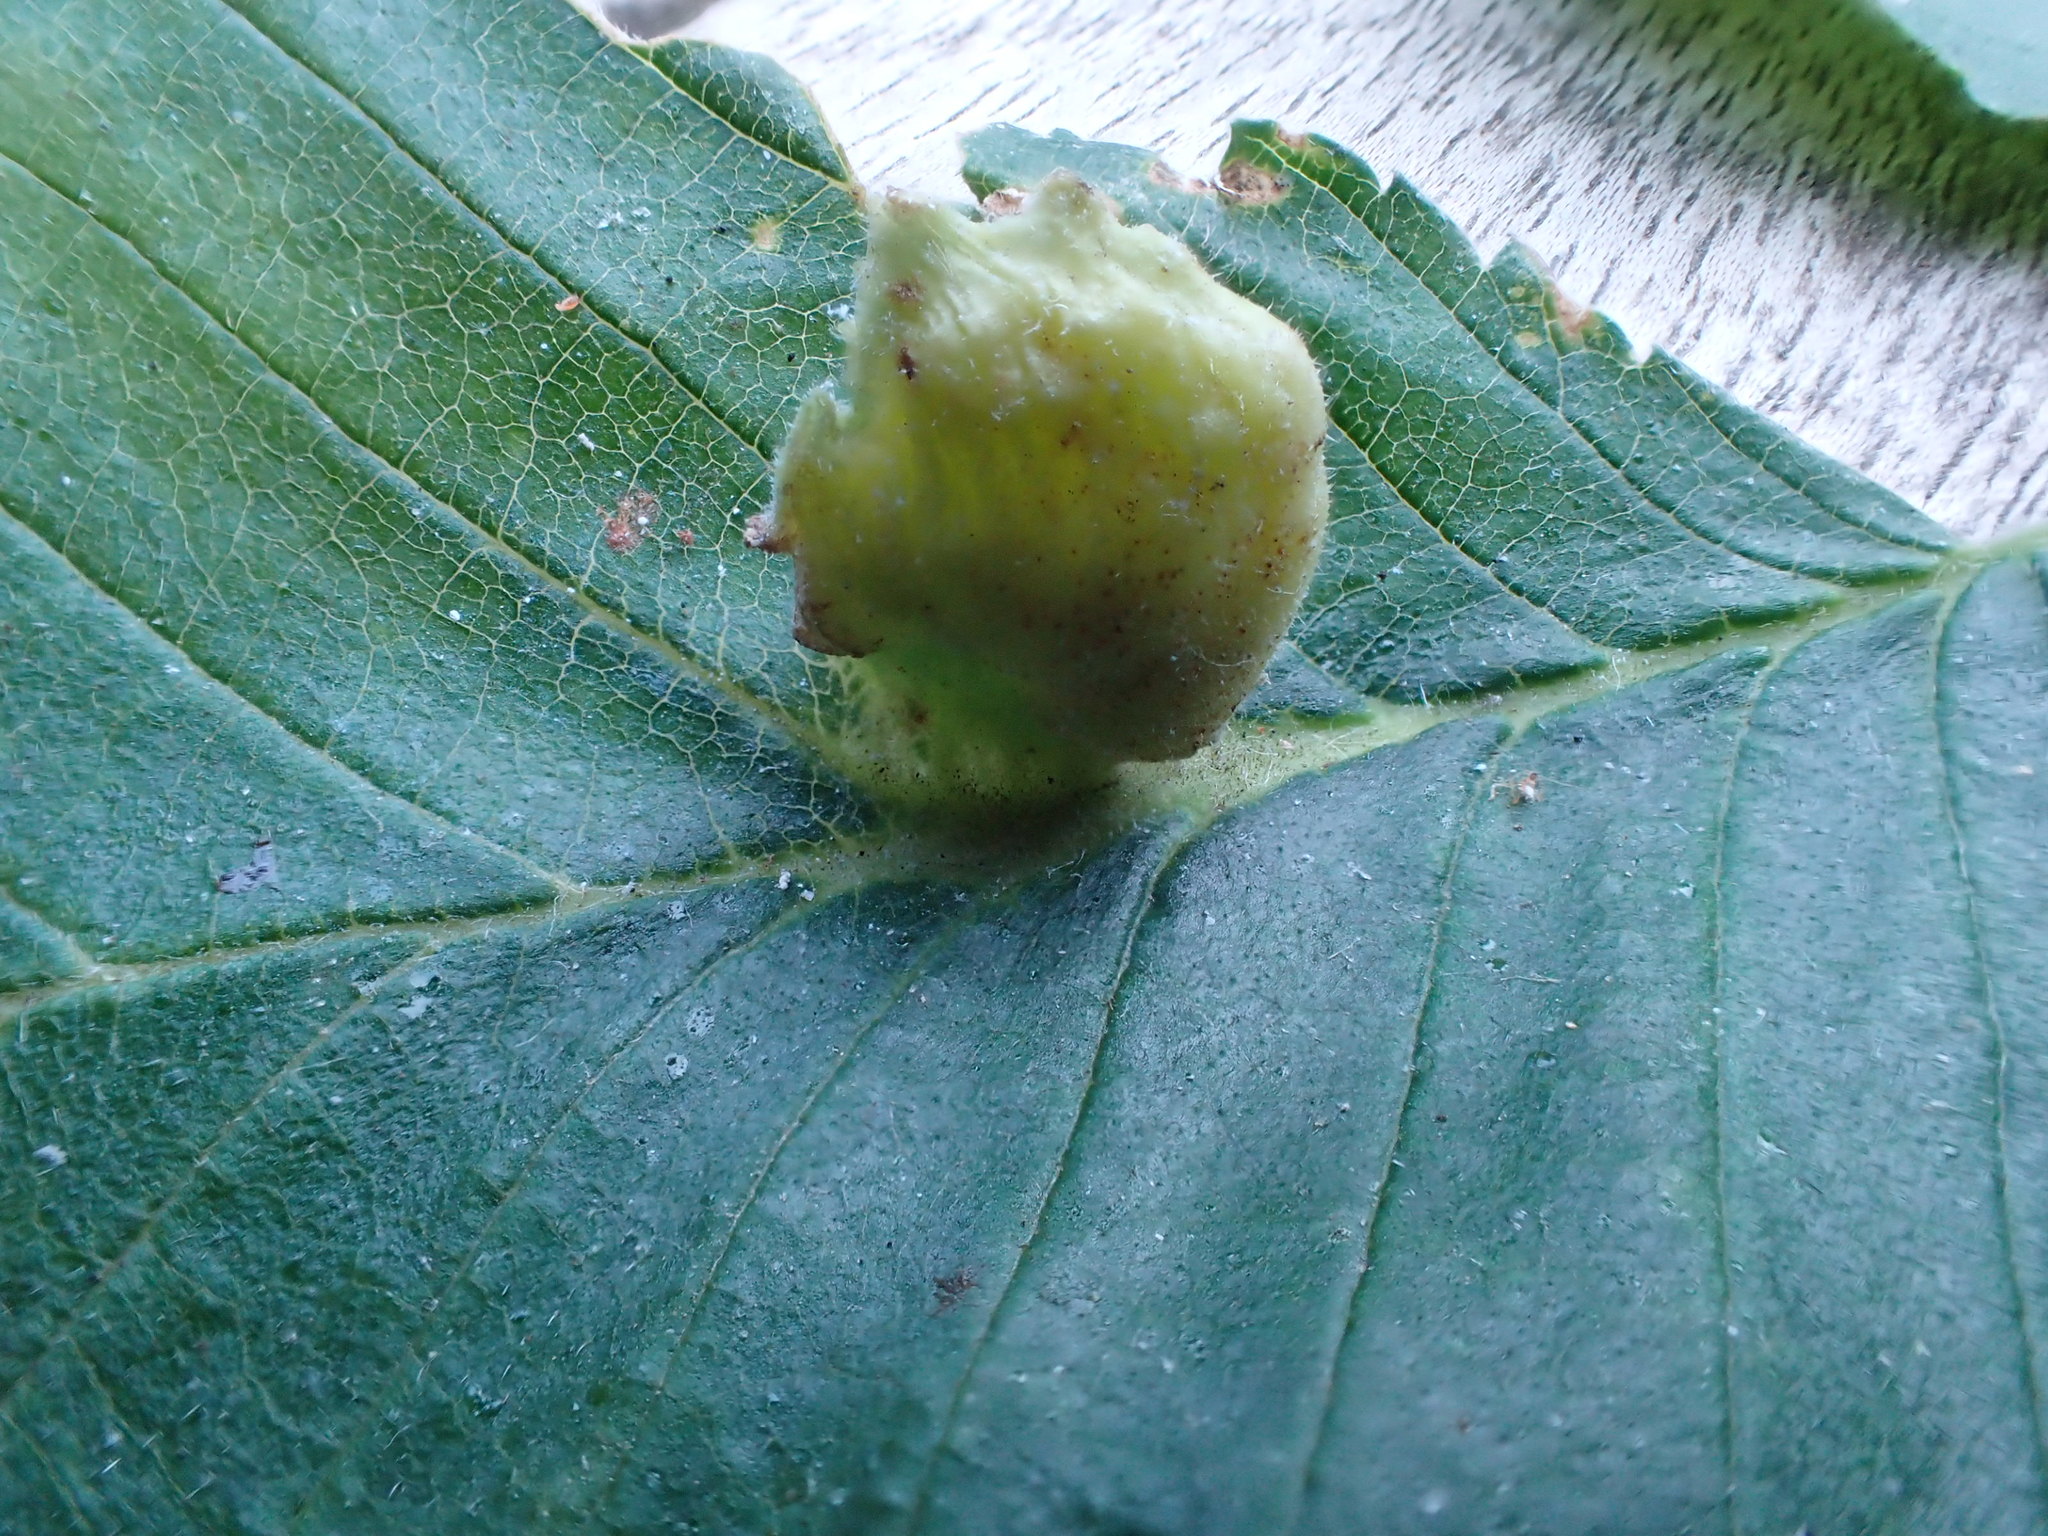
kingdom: Animalia
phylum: Arthropoda
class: Insecta
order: Hemiptera
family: Aphididae
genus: Colopha
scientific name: Colopha compressa
